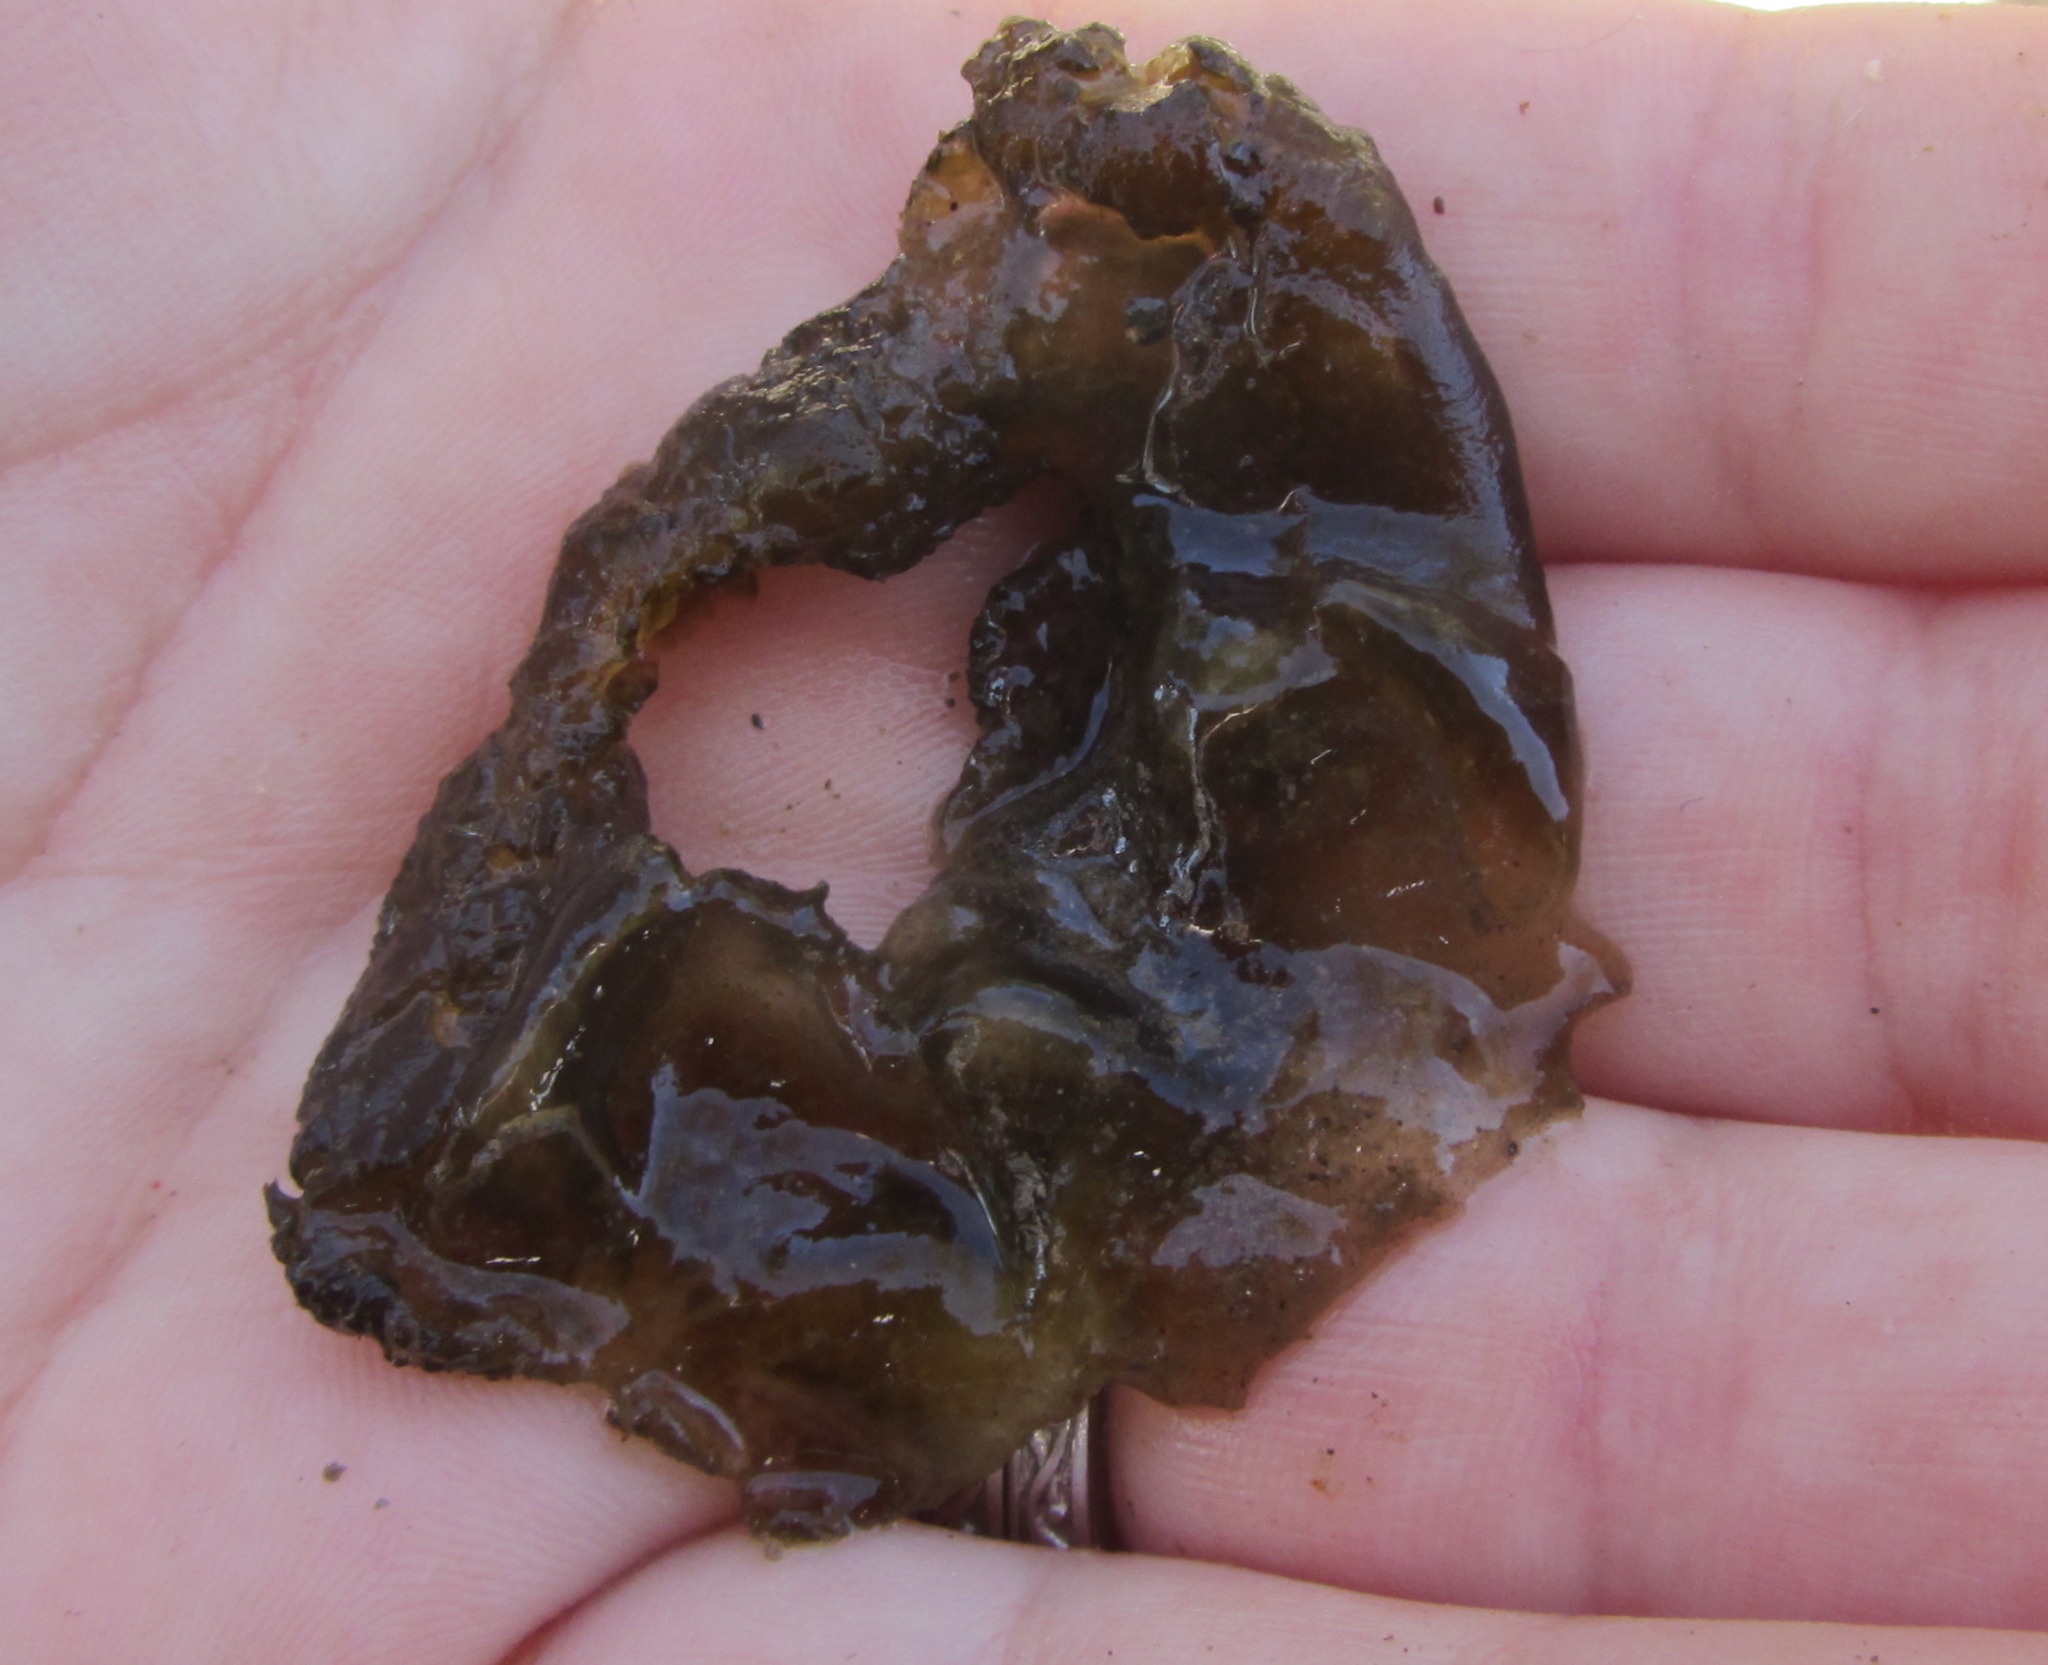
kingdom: Bacteria
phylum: Cyanobacteria
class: Cyanobacteriia
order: Cyanobacteriales
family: Nostocaceae
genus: Nostoc
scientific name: Nostoc
